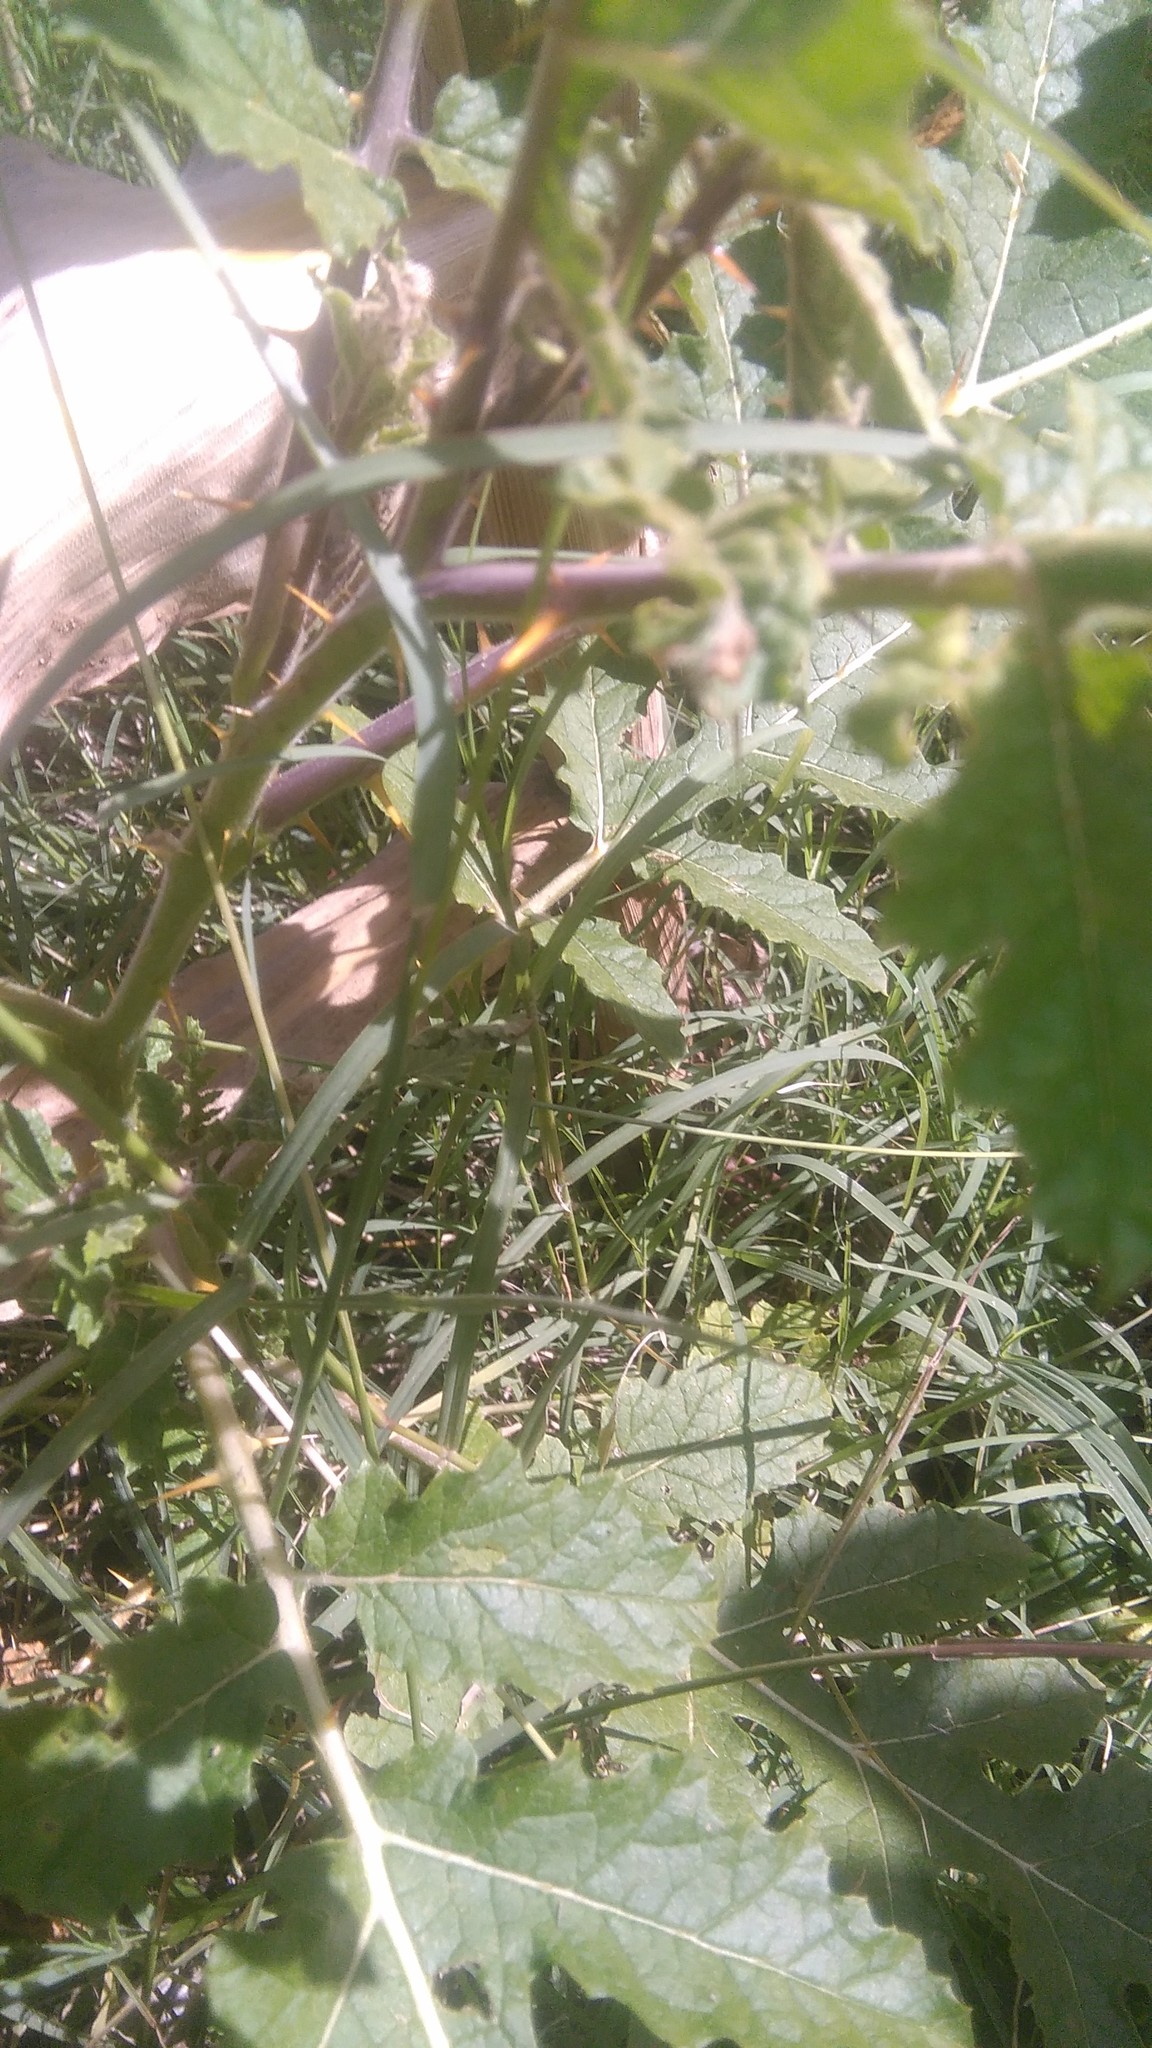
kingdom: Plantae
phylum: Tracheophyta
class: Magnoliopsida
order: Solanales
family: Solanaceae
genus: Solanum
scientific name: Solanum sisymbriifolium
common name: Red buffalo-bur
